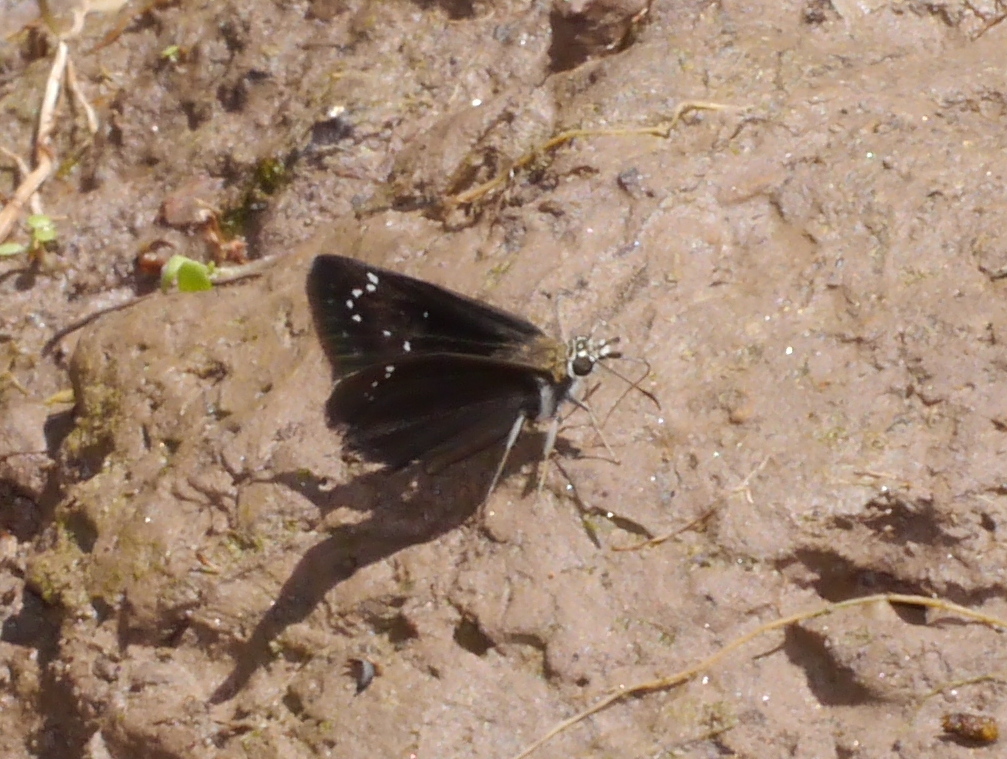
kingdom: Animalia
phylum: Arthropoda
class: Insecta
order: Lepidoptera
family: Hesperiidae
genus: Pholisora
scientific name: Pholisora catullus
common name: Common sootywing
